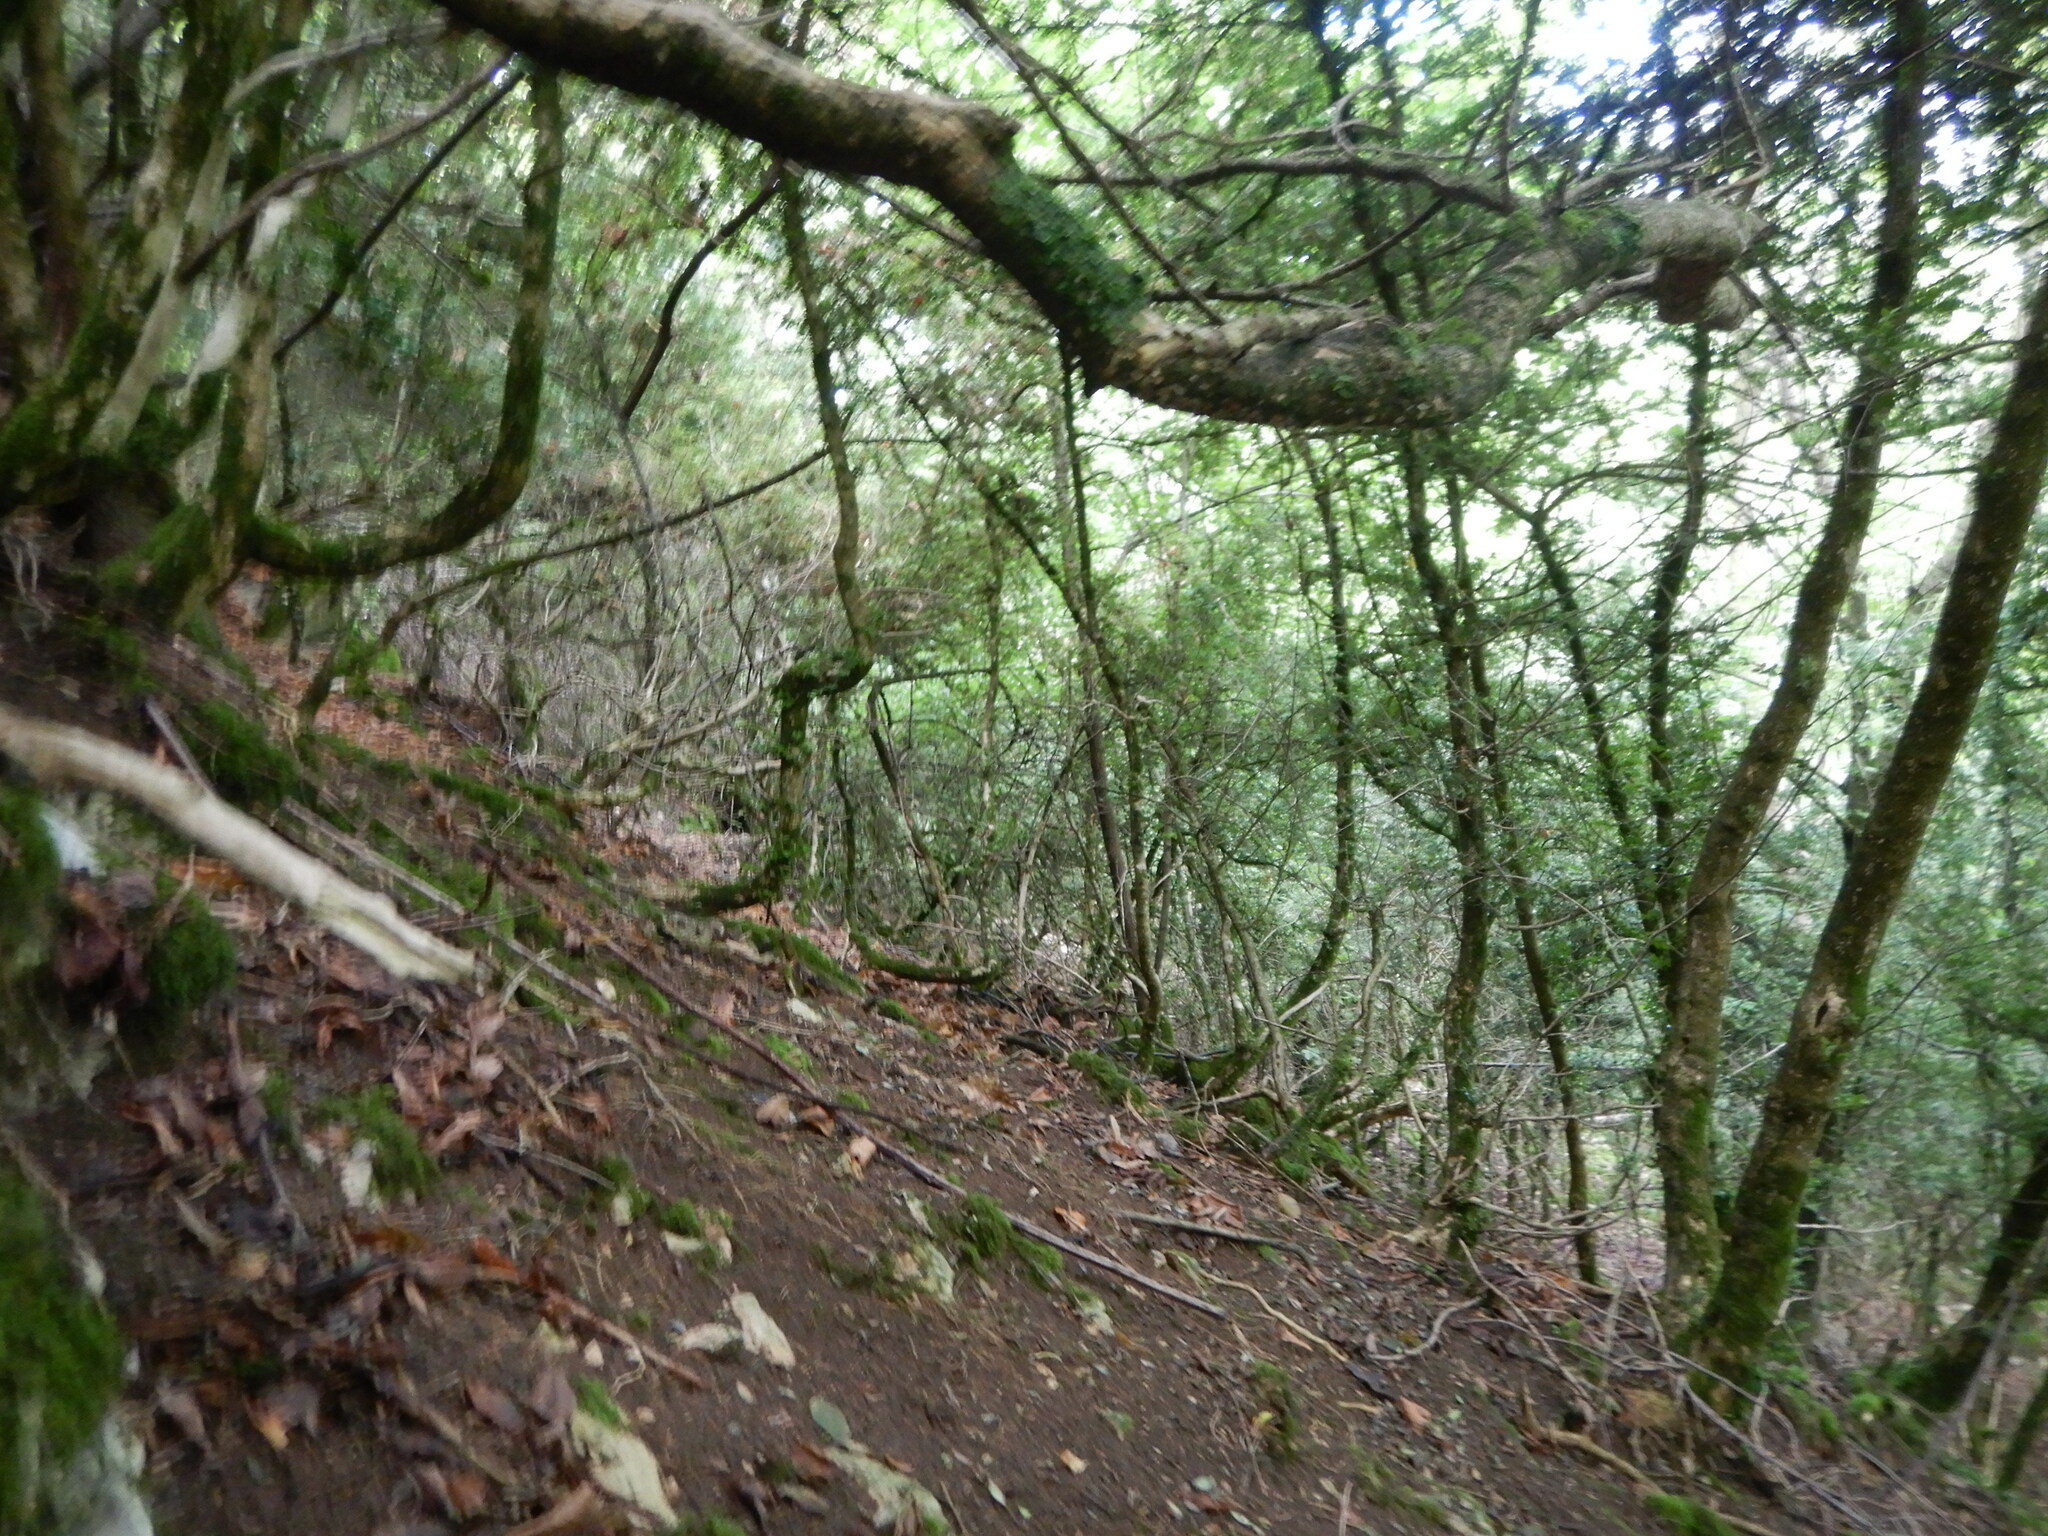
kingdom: Plantae
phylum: Tracheophyta
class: Magnoliopsida
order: Buxales
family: Buxaceae
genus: Buxus
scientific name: Buxus sempervirens
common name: Box
